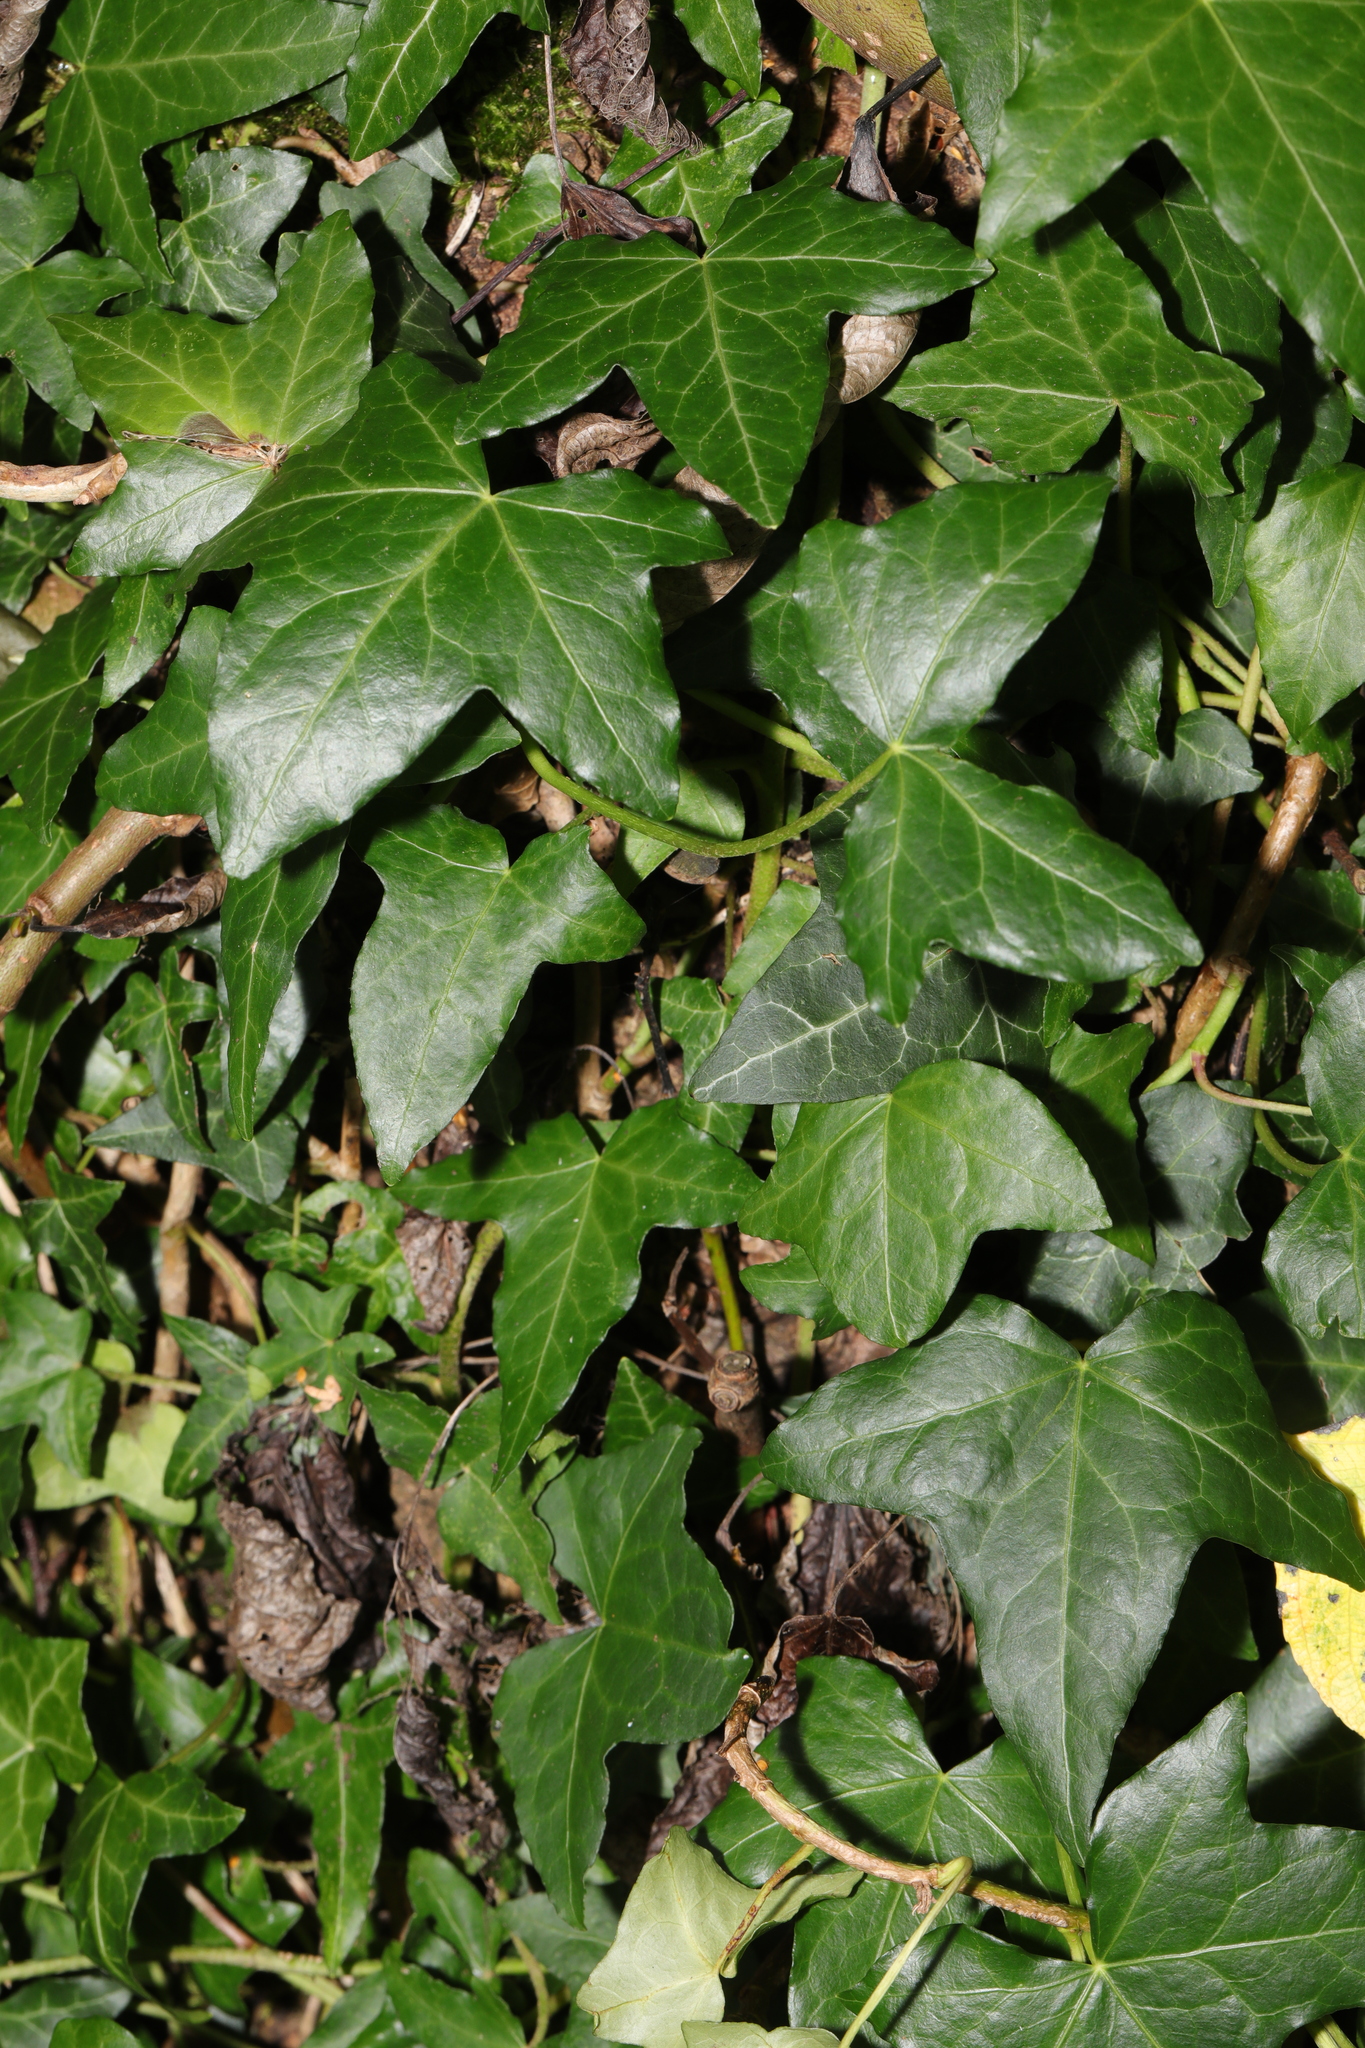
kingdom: Plantae
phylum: Tracheophyta
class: Magnoliopsida
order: Apiales
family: Araliaceae
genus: Hedera
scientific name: Hedera helix
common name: Ivy
